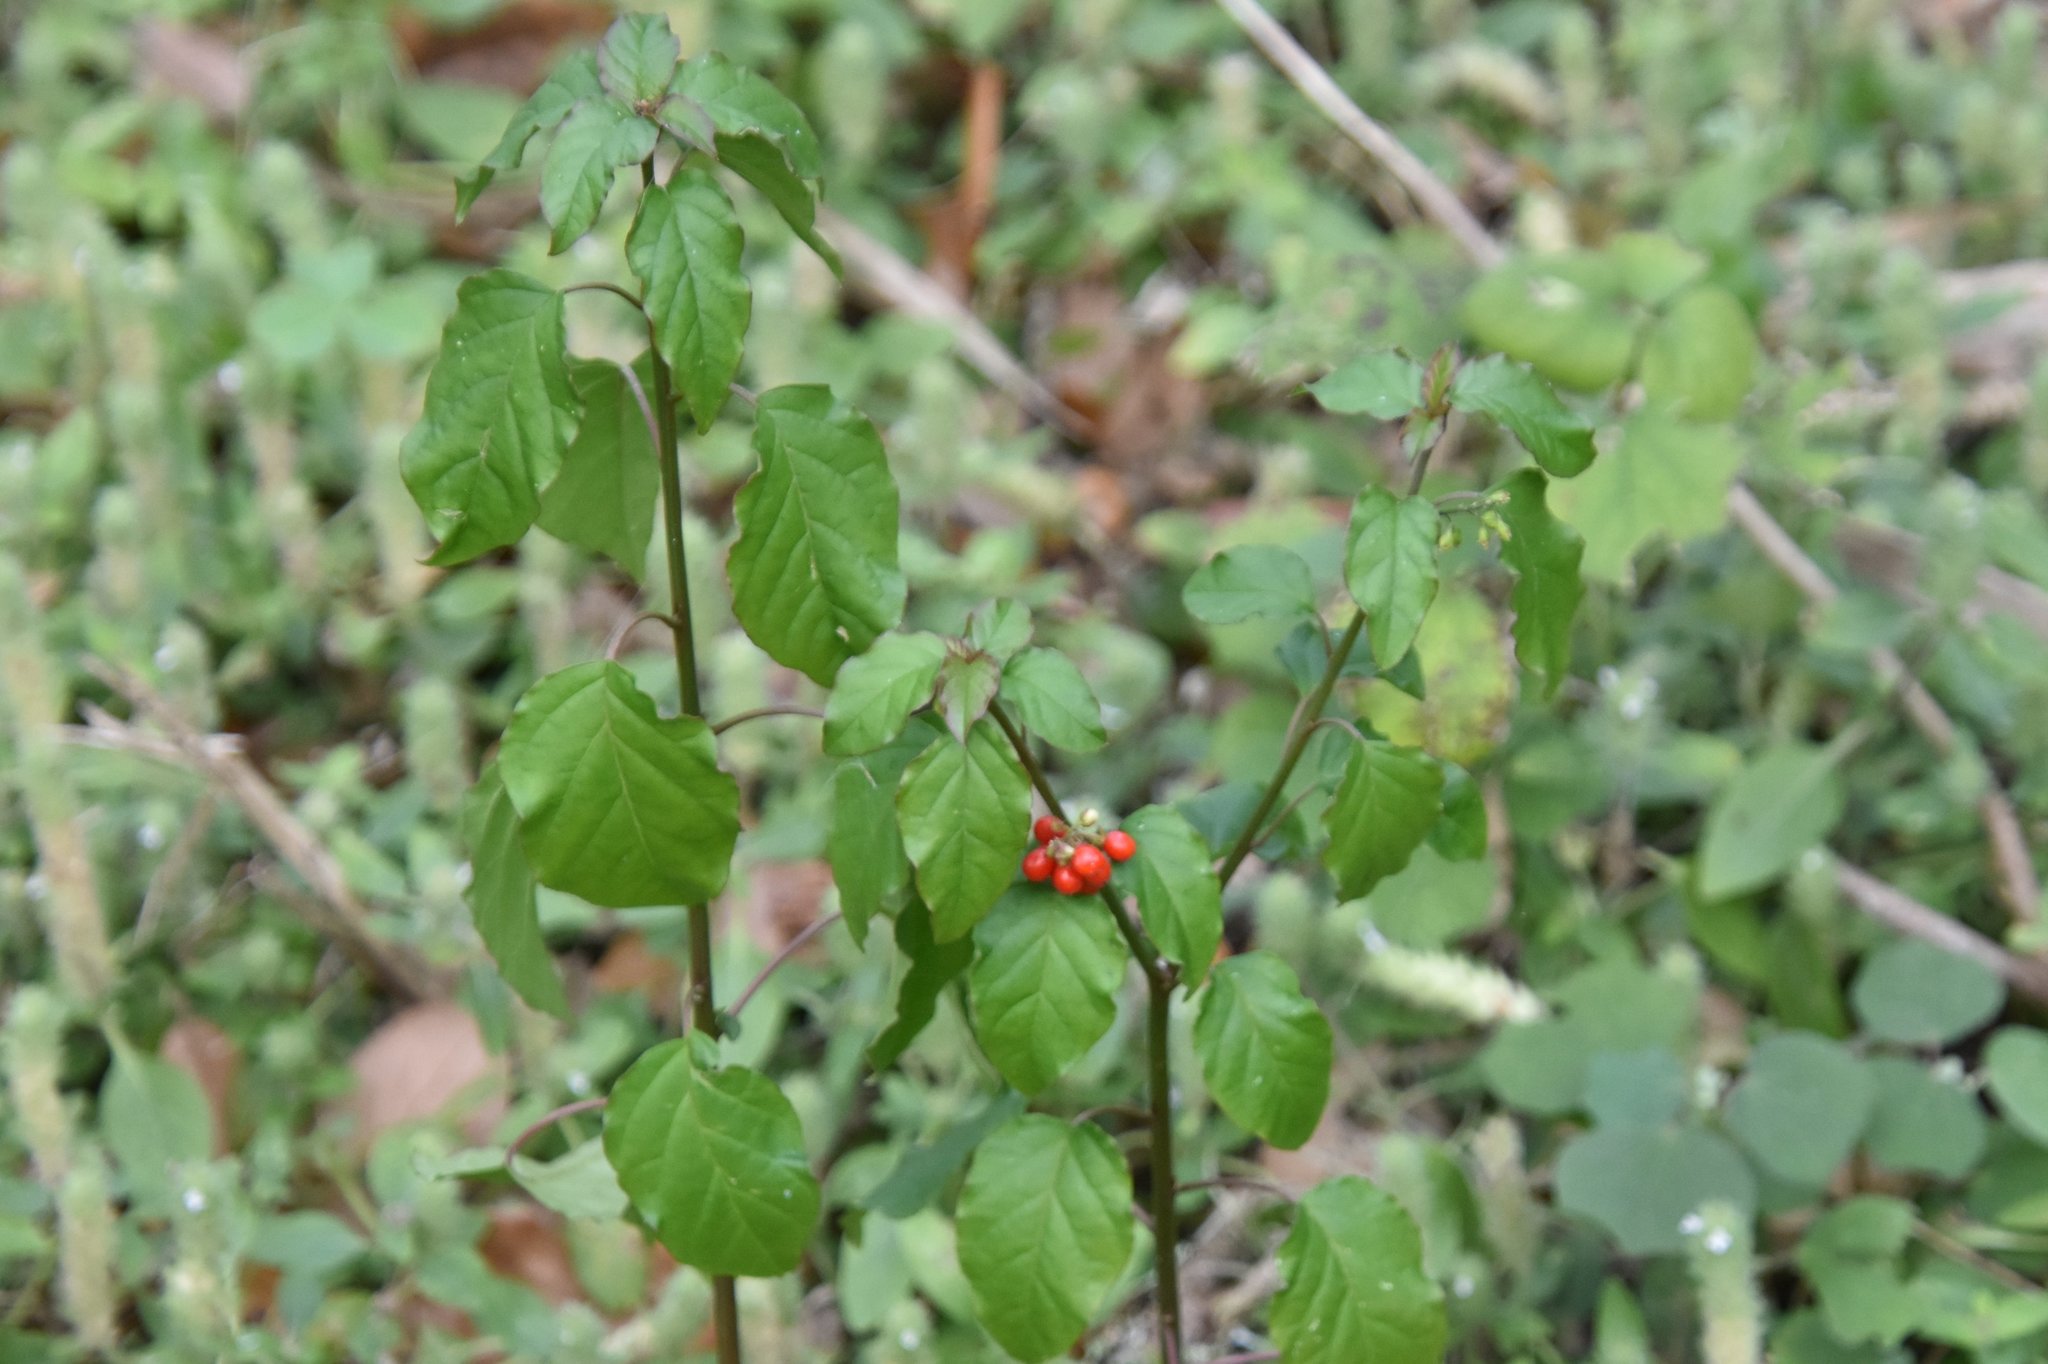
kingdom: Plantae
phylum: Tracheophyta
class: Magnoliopsida
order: Caryophyllales
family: Phytolaccaceae
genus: Rivina
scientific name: Rivina humilis
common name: Rougeplant
